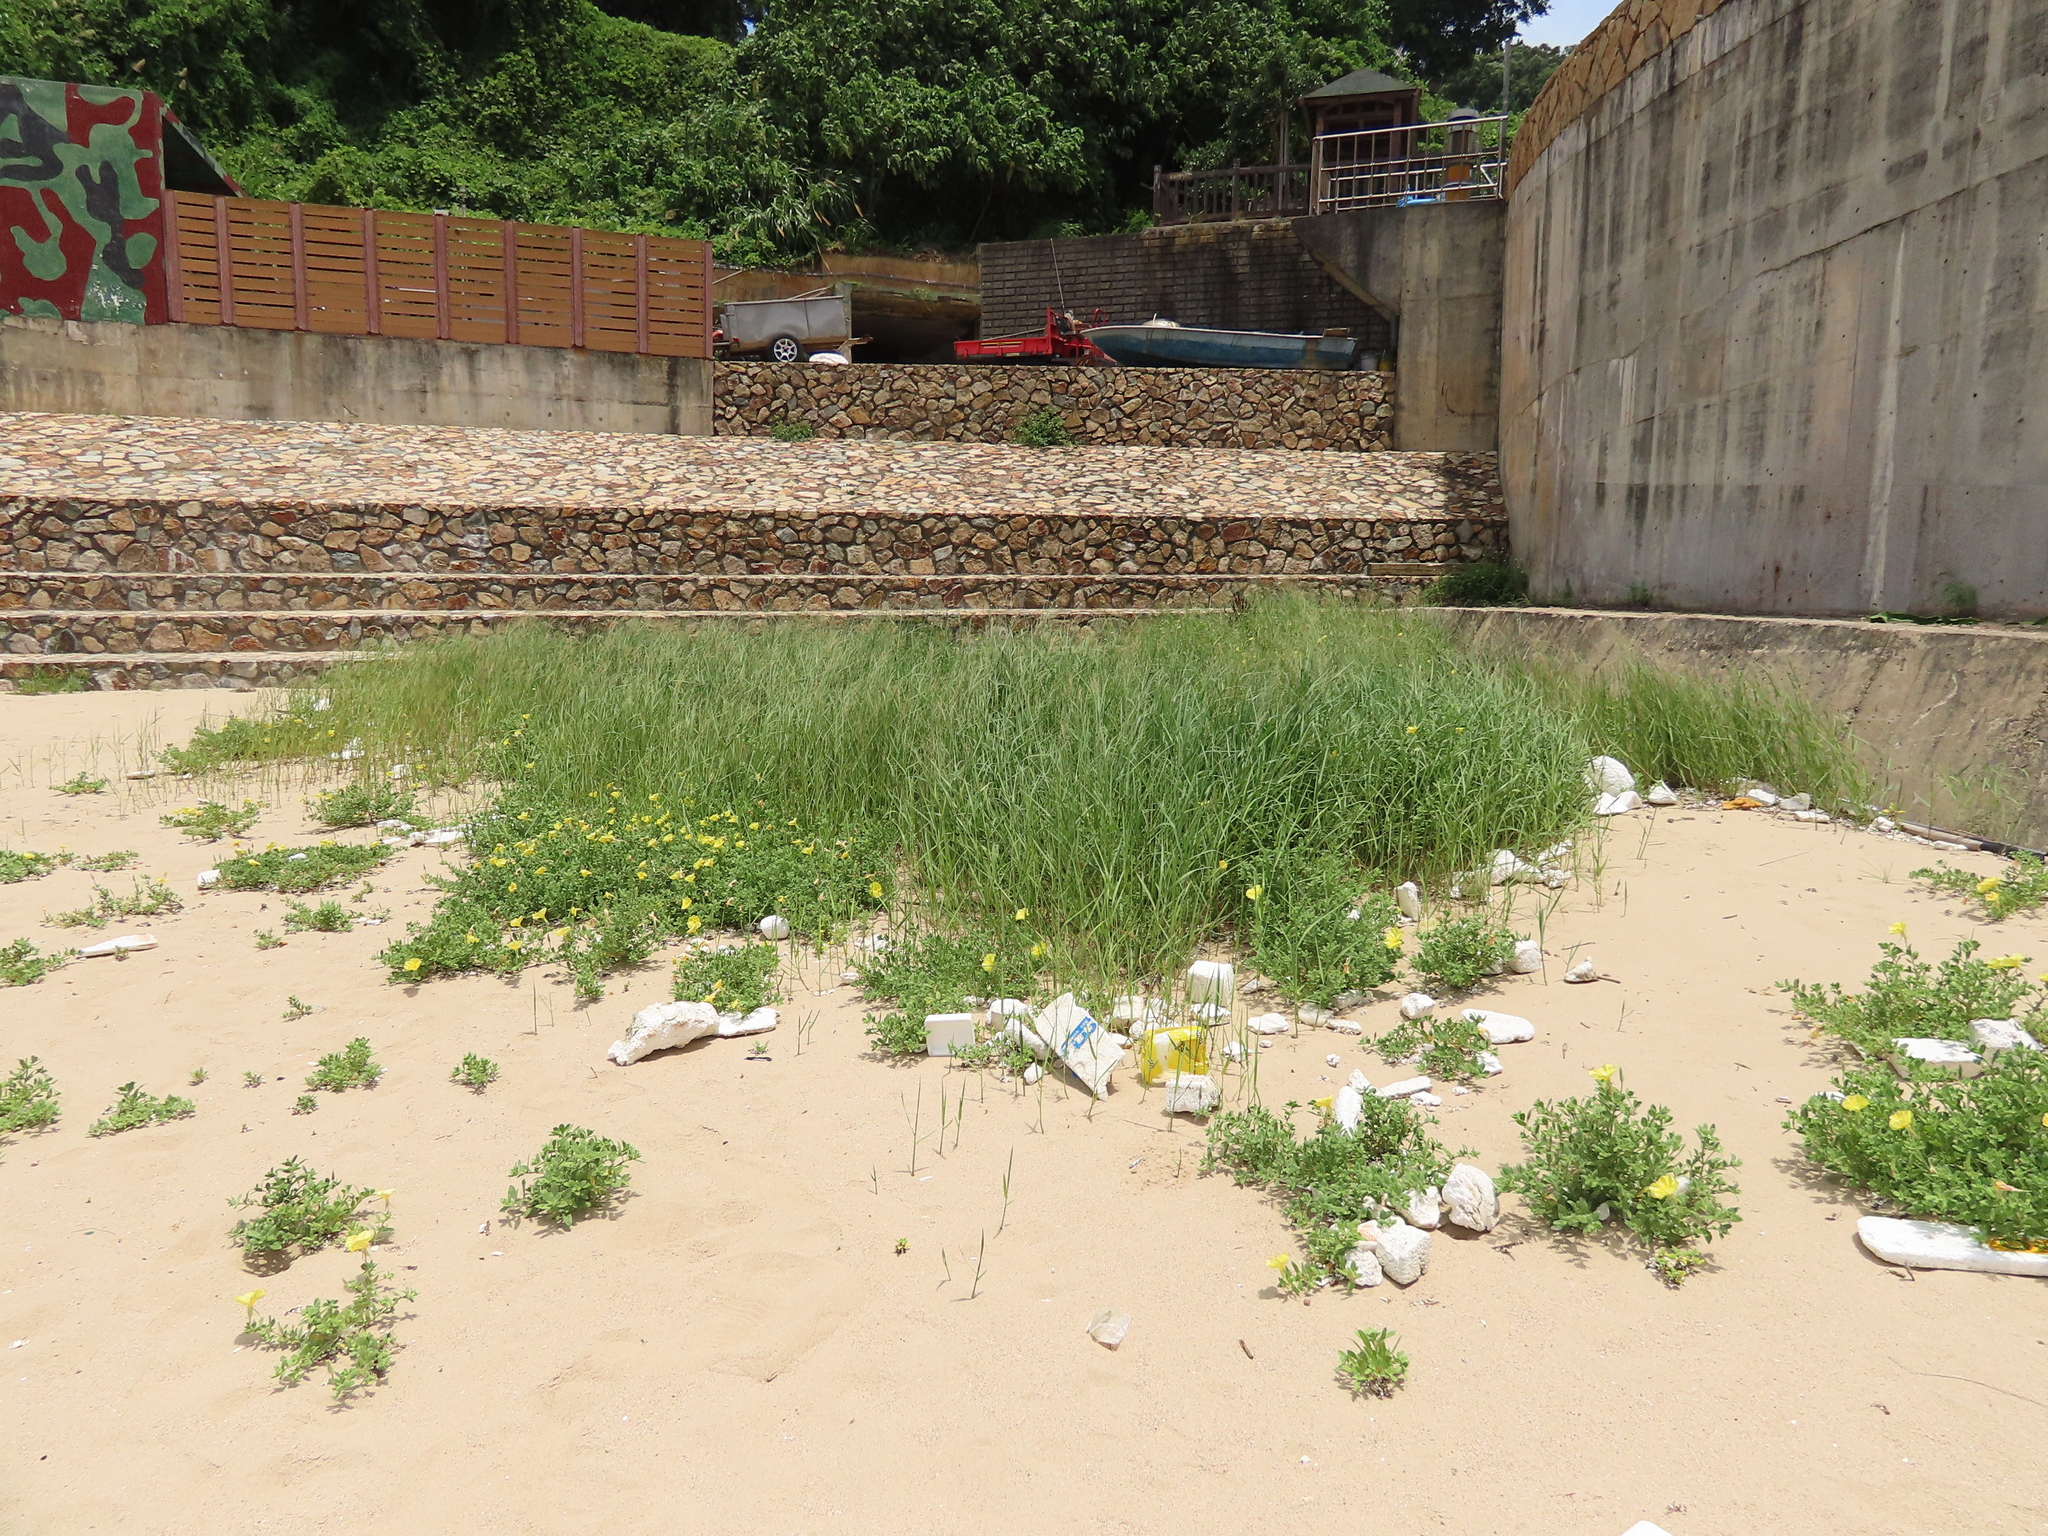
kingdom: Plantae
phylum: Tracheophyta
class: Magnoliopsida
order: Myrtales
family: Onagraceae
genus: Oenothera
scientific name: Oenothera drummondii
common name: Beach evening-primrose
